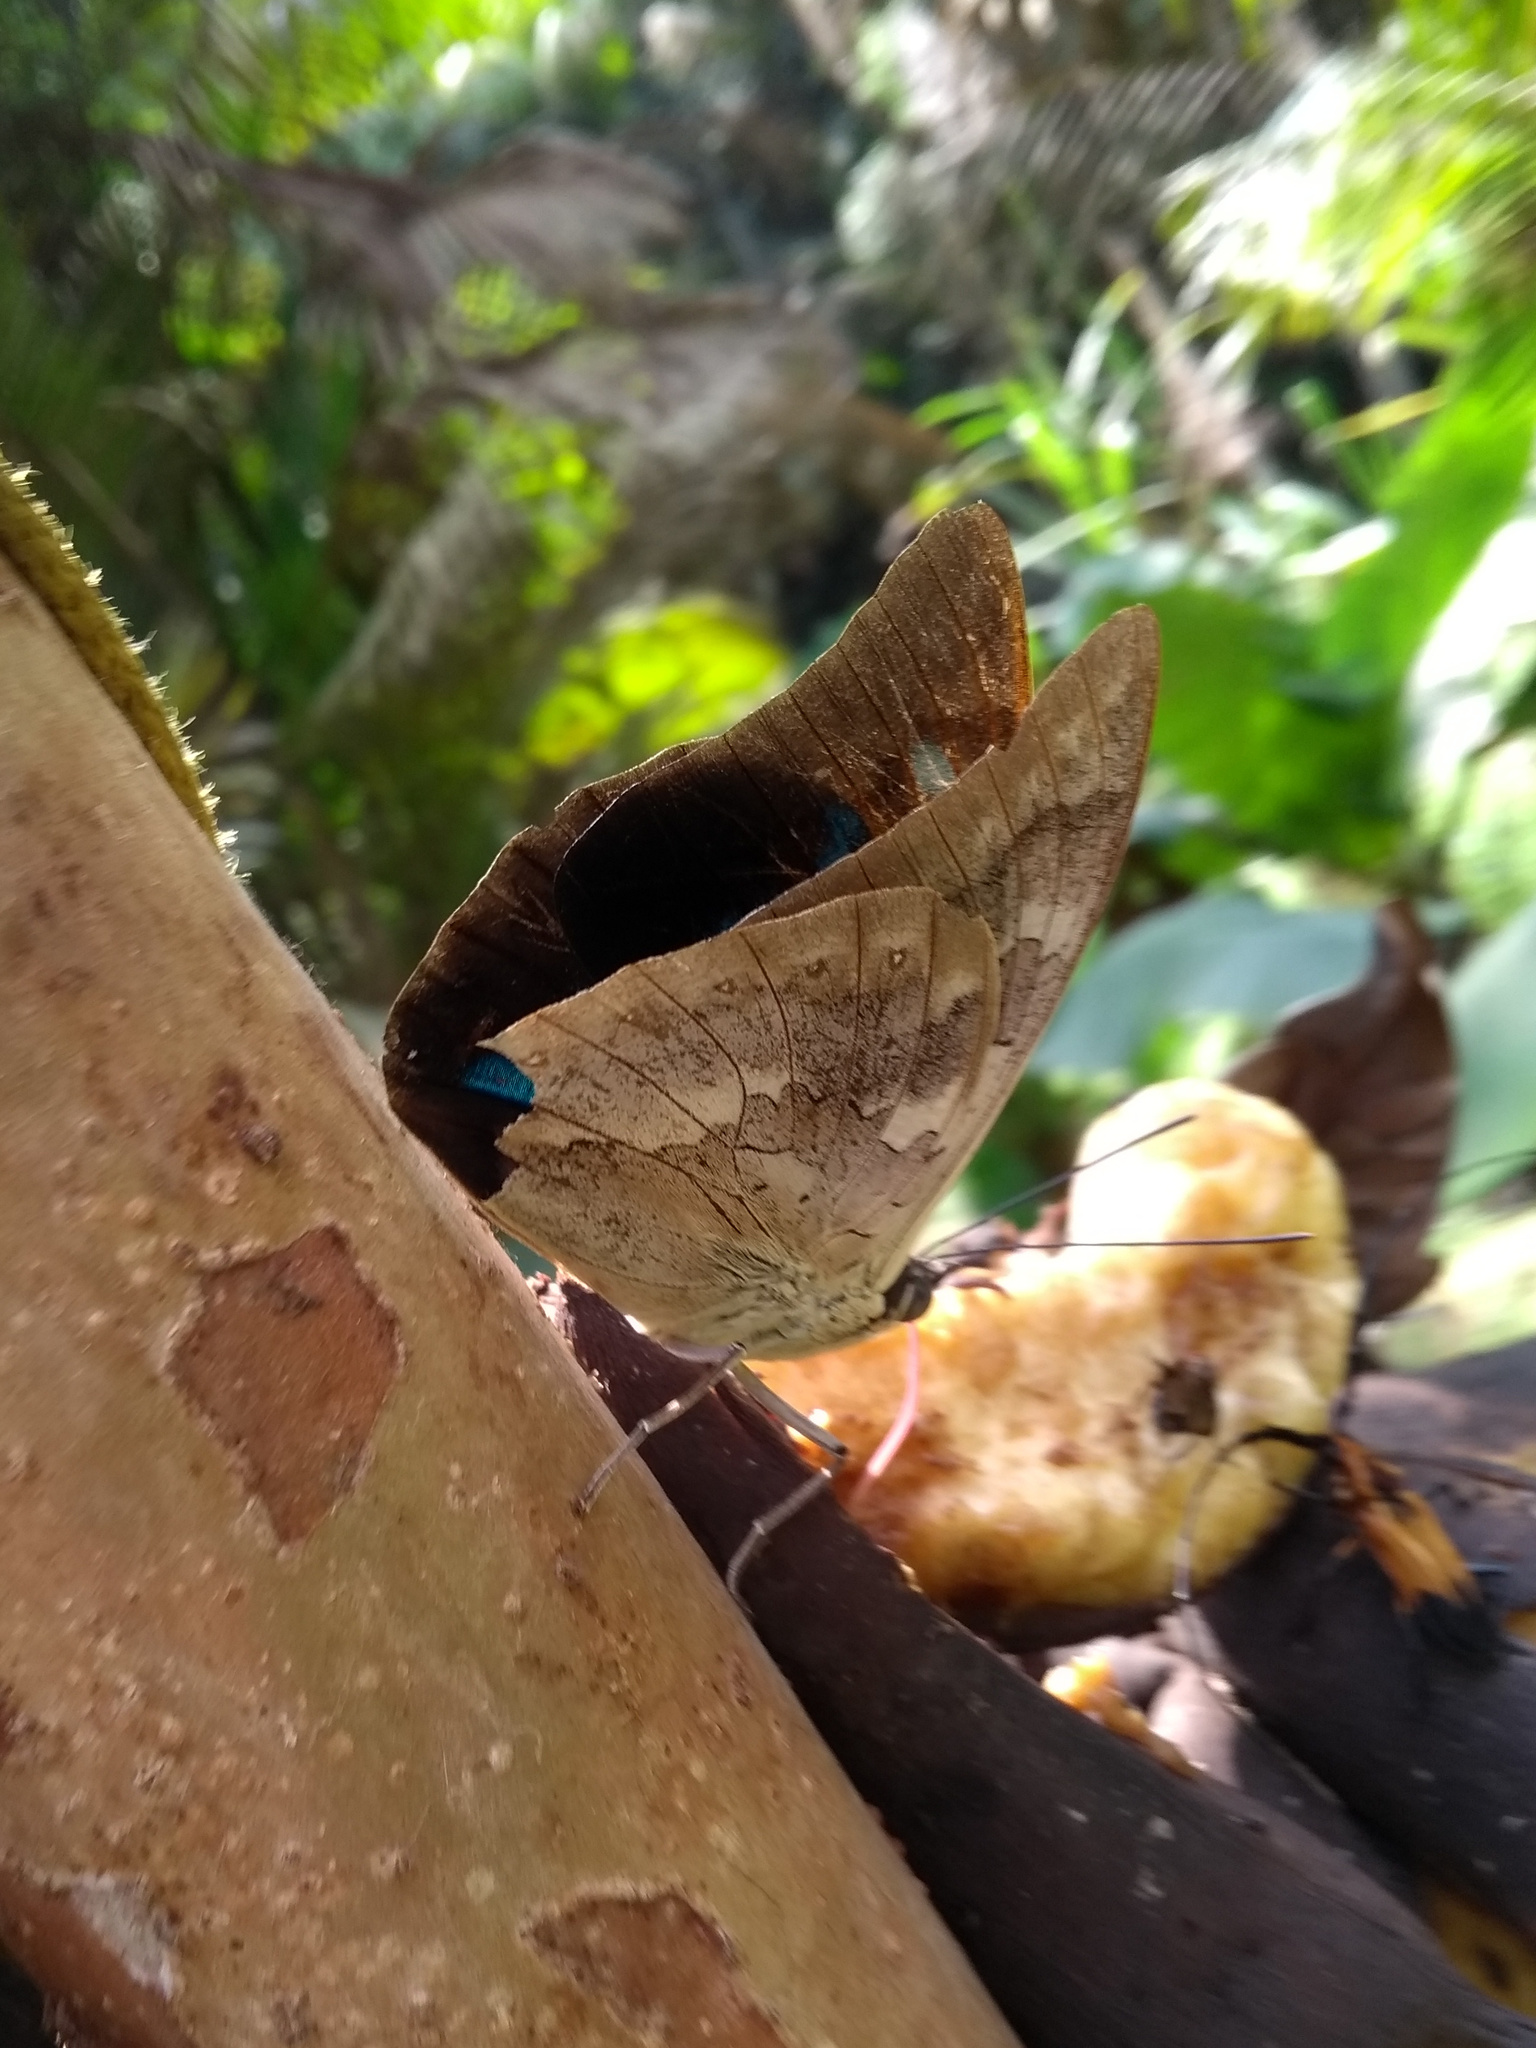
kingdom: Animalia
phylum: Arthropoda
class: Insecta
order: Lepidoptera
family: Nymphalidae
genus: Prepona
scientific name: Prepona demophon
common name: One-spotted prepona
